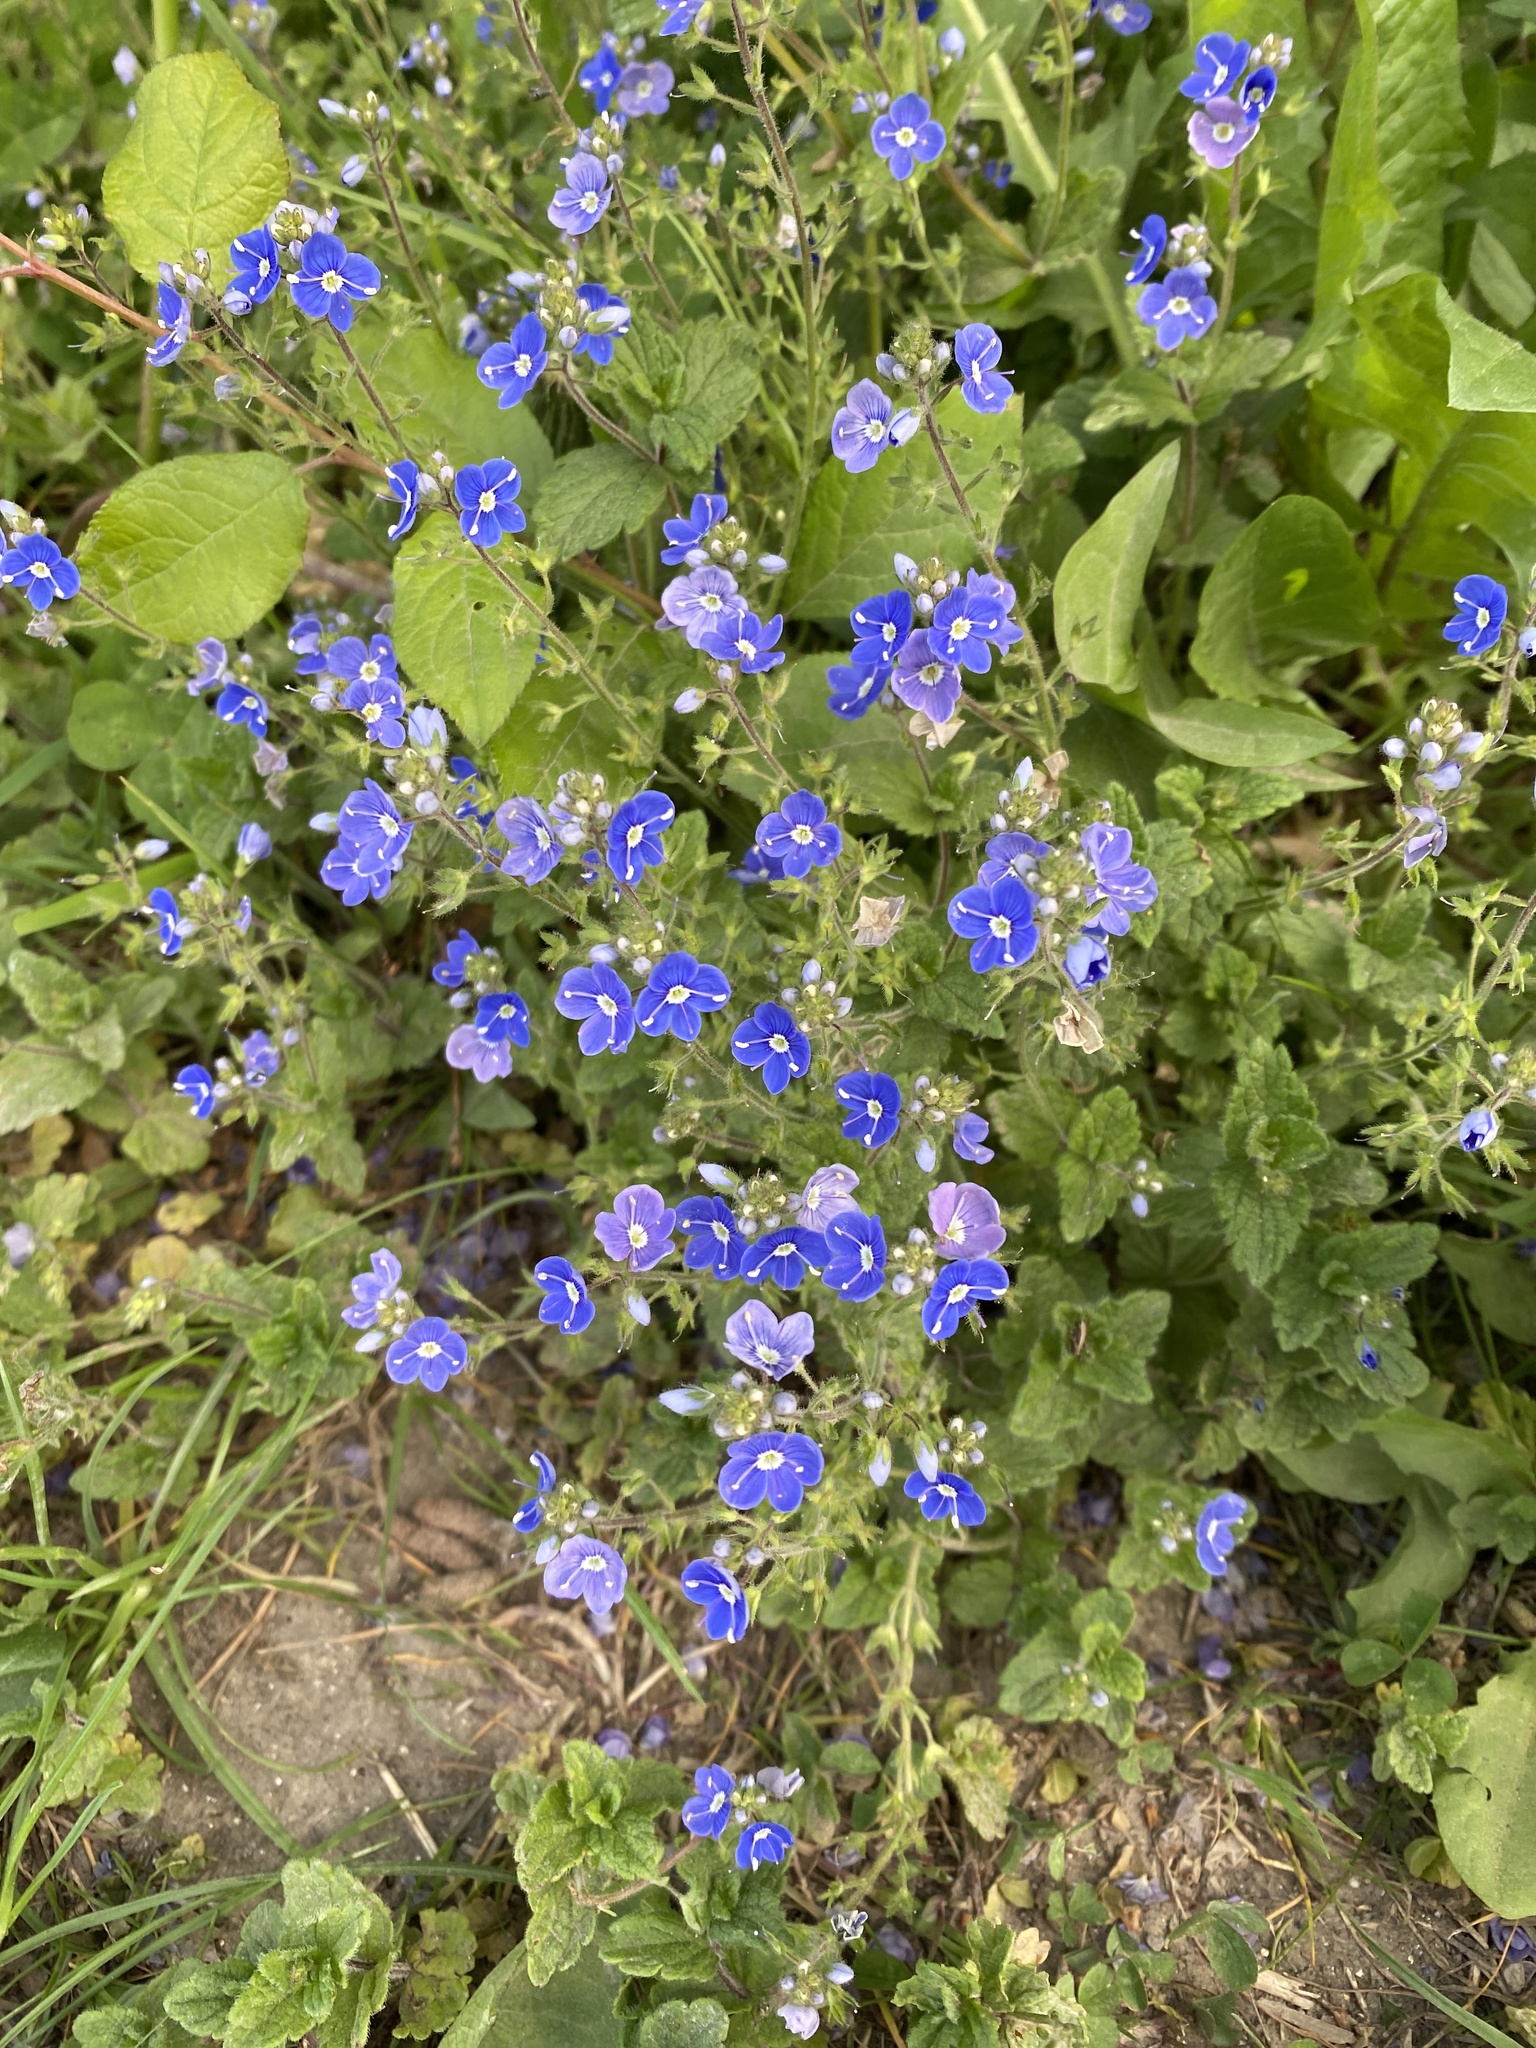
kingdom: Plantae
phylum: Tracheophyta
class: Magnoliopsida
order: Lamiales
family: Plantaginaceae
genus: Veronica
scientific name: Veronica chamaedrys
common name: Germander speedwell
